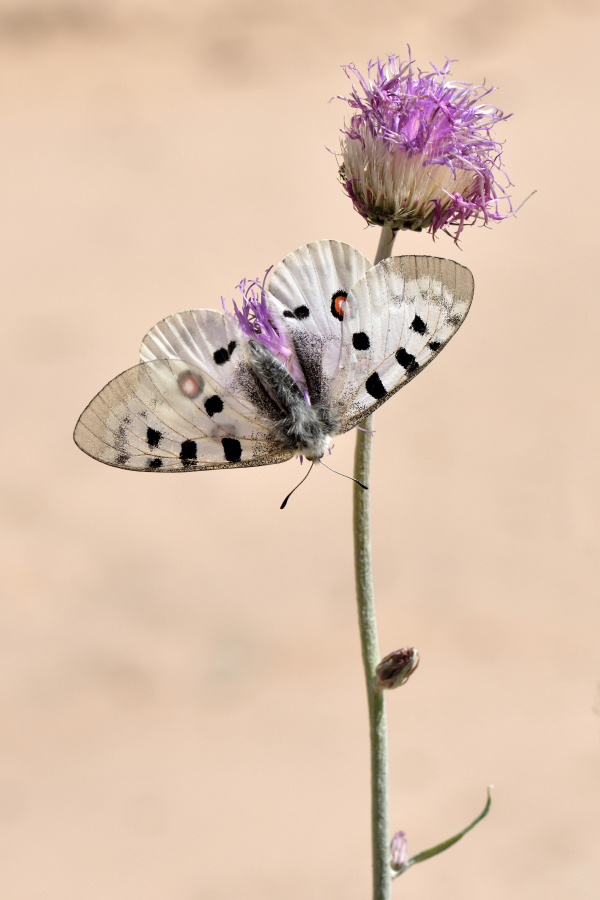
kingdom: Animalia
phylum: Arthropoda
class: Insecta
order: Lepidoptera
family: Papilionidae
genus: Parnassius
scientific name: Parnassius apollo
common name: Apollo
